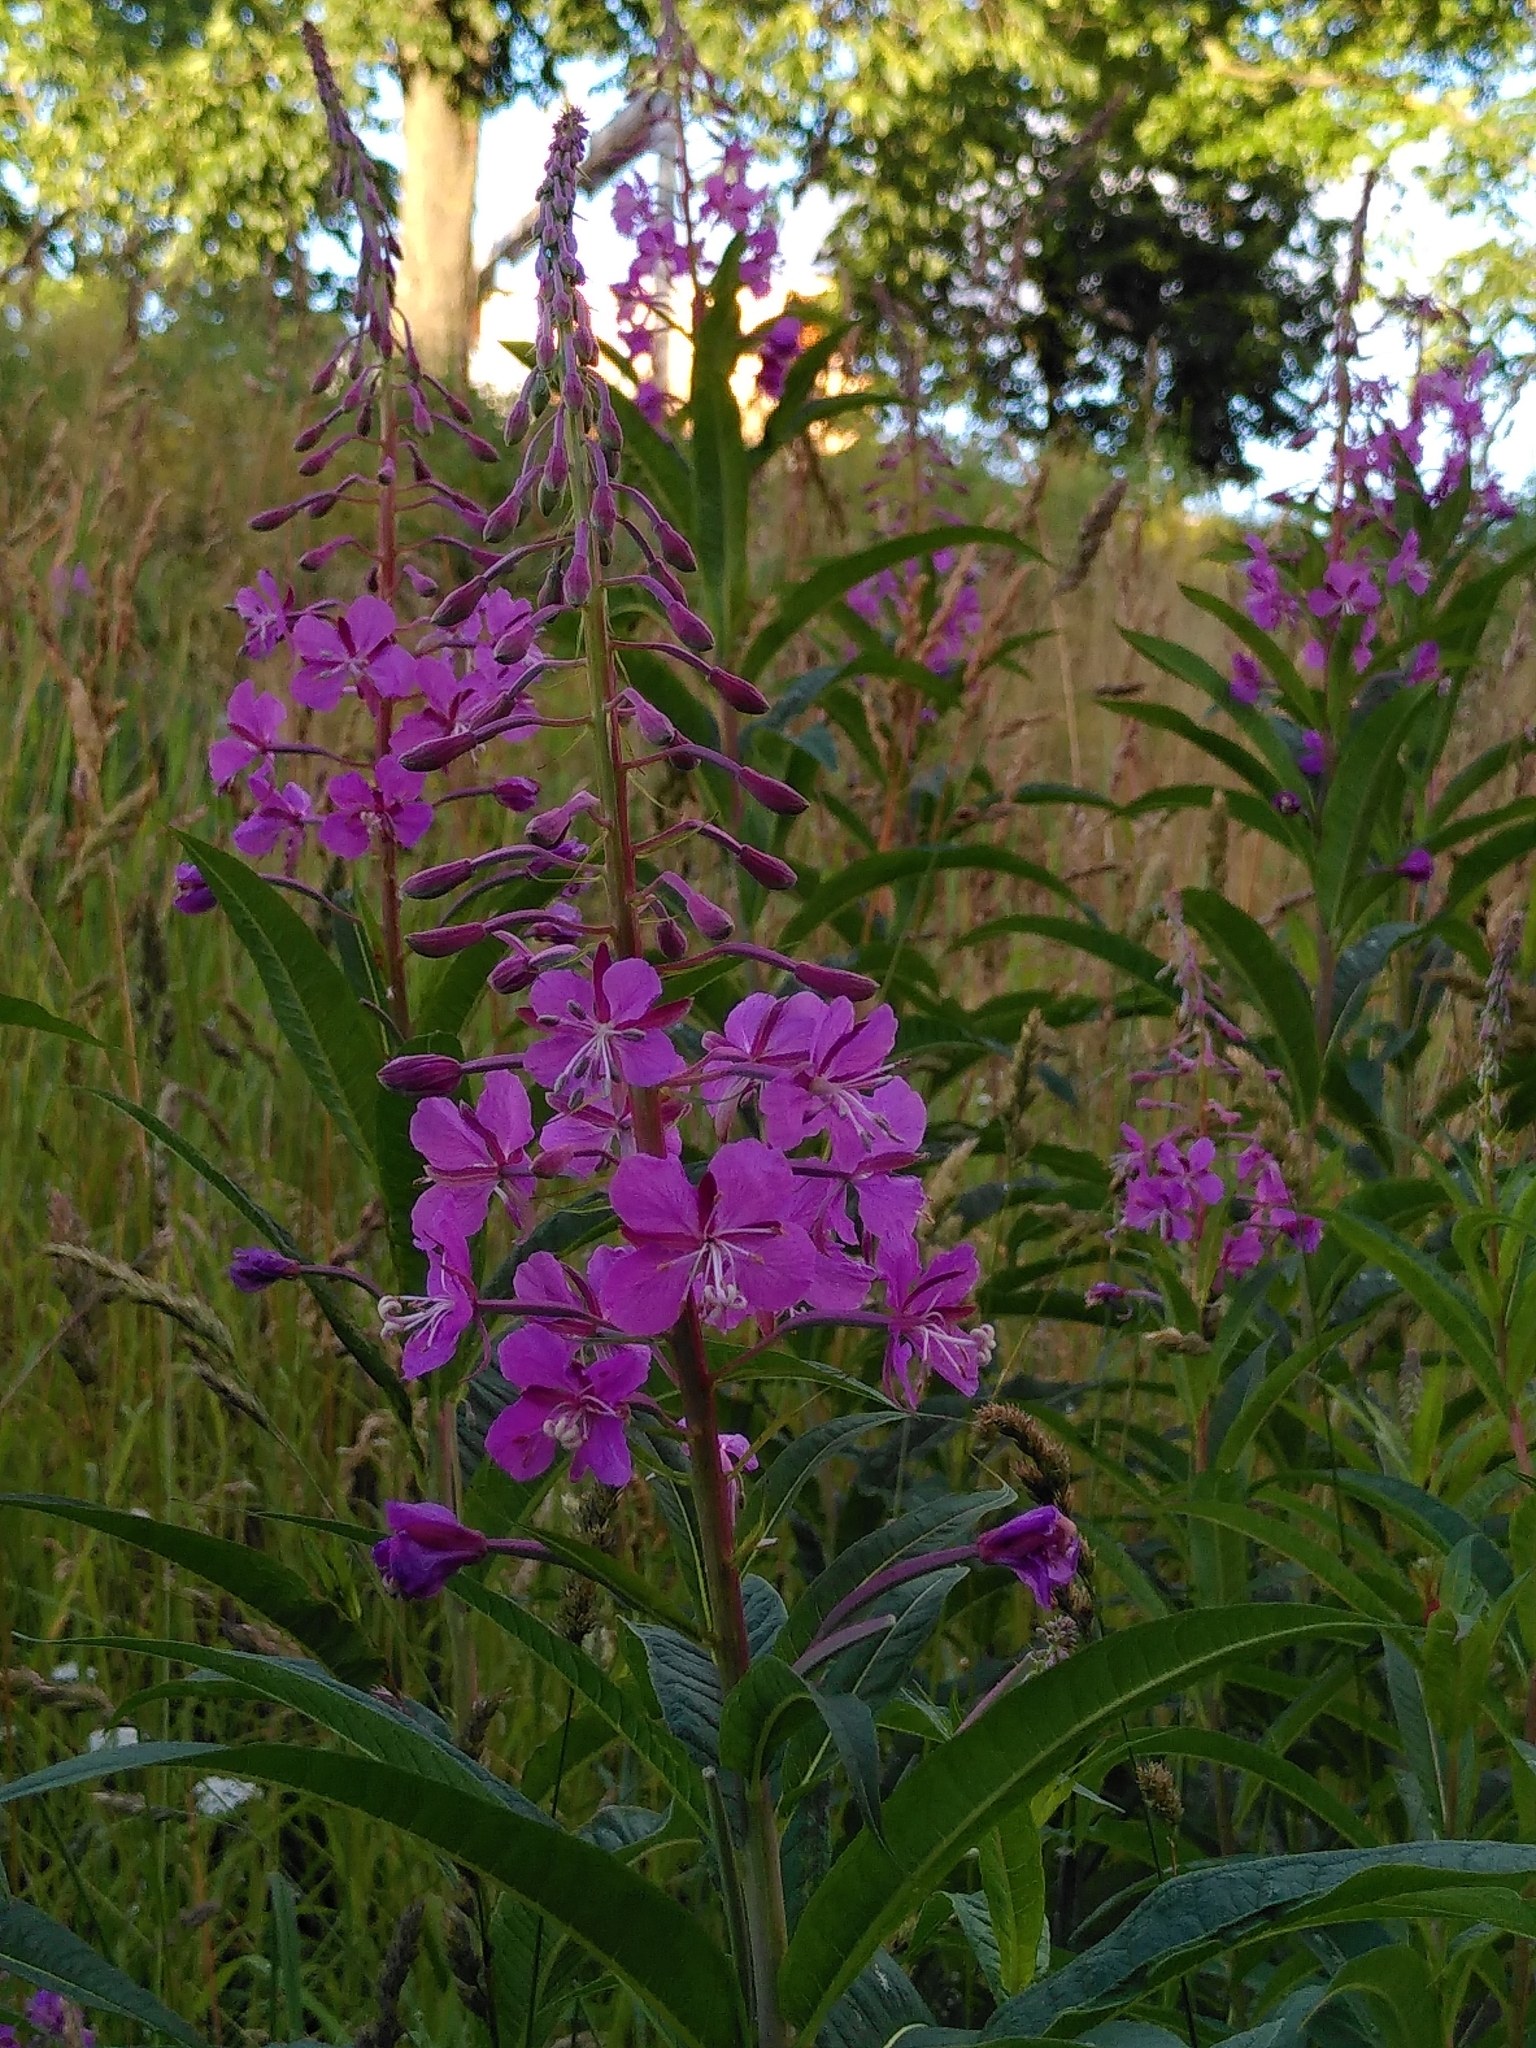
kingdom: Plantae
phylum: Tracheophyta
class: Magnoliopsida
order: Myrtales
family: Onagraceae
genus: Chamaenerion
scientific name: Chamaenerion angustifolium
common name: Fireweed
